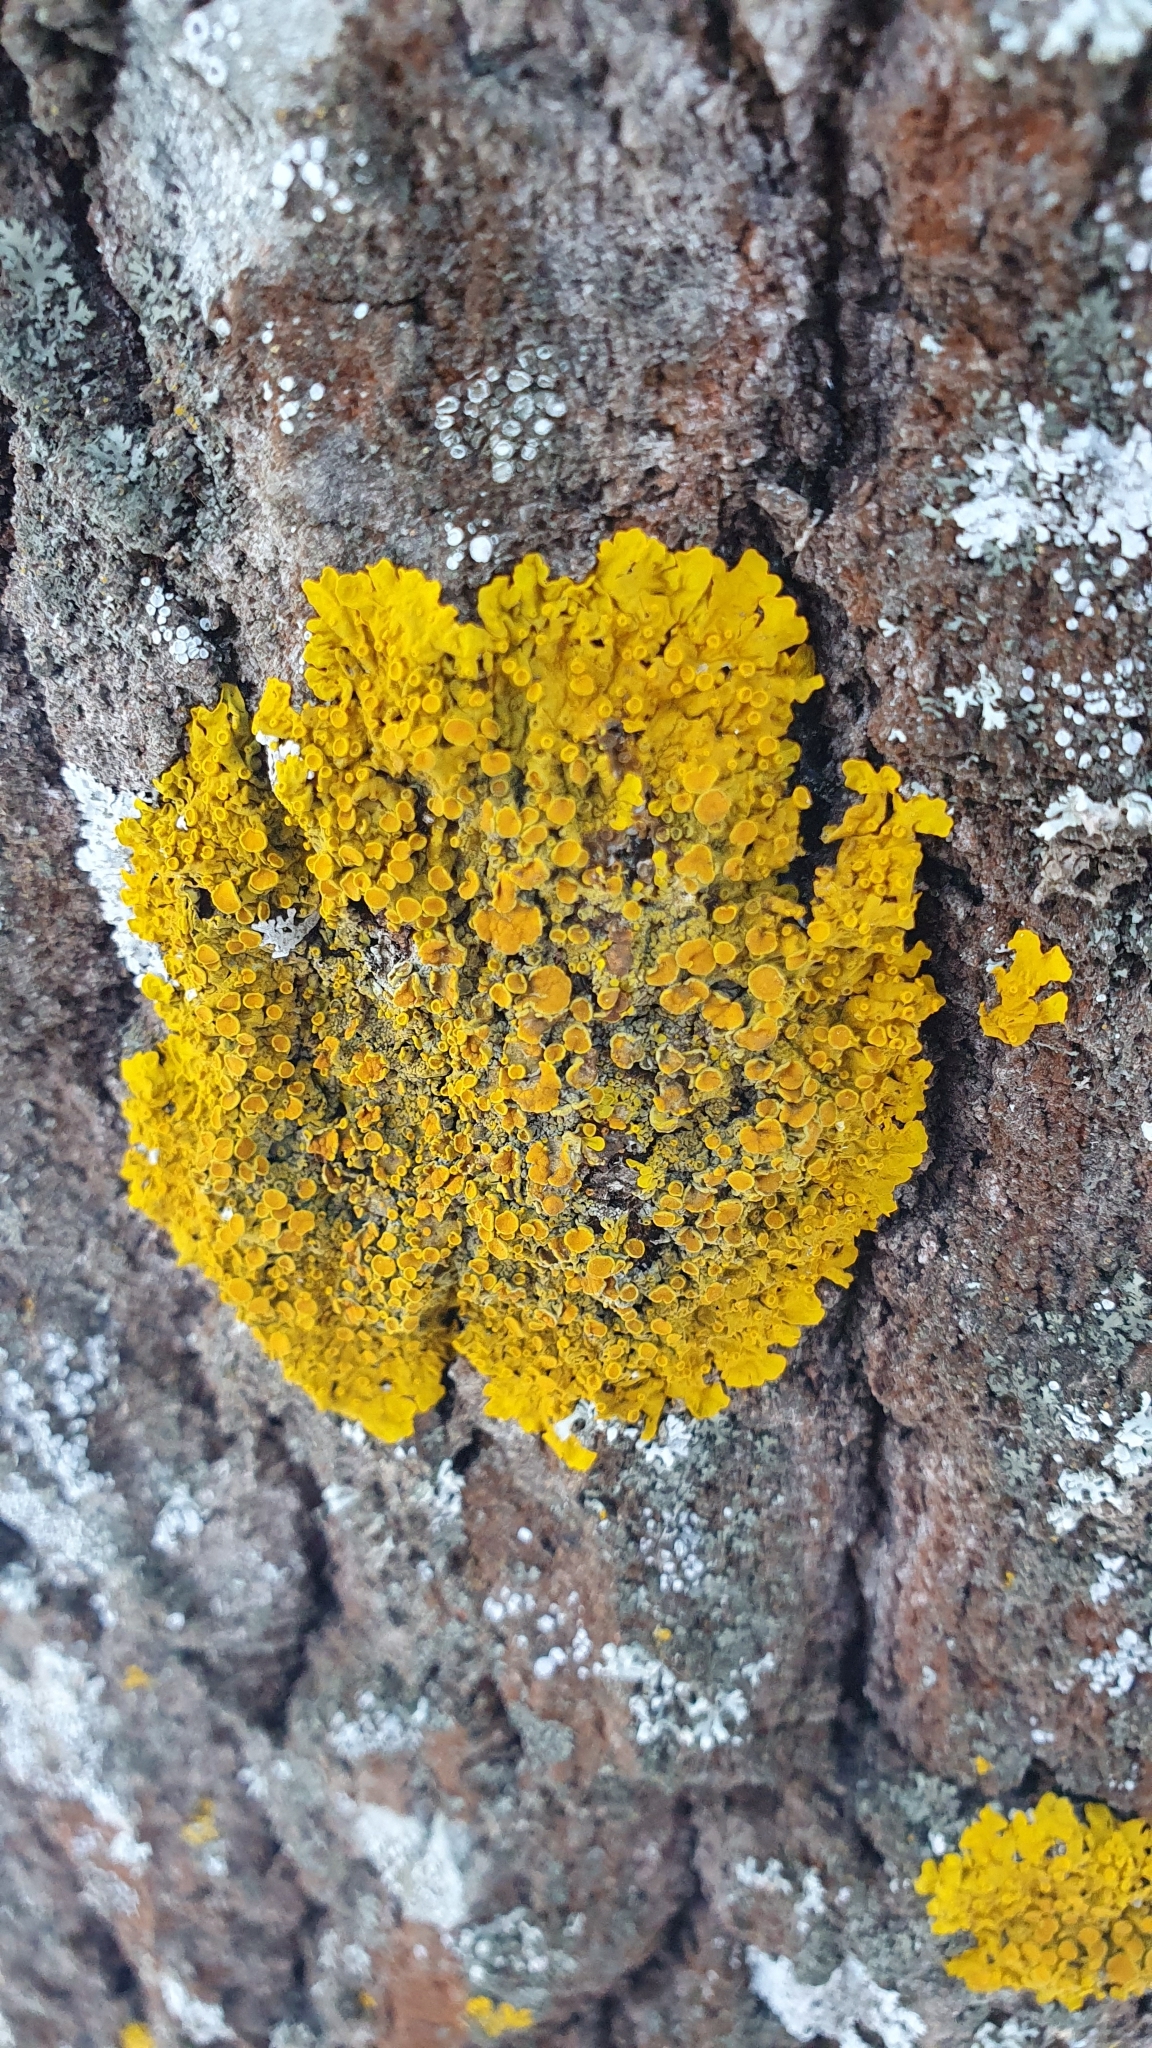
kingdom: Fungi
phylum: Ascomycota
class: Lecanoromycetes
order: Teloschistales
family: Teloschistaceae
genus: Xanthoria
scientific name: Xanthoria parietina
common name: Common orange lichen
